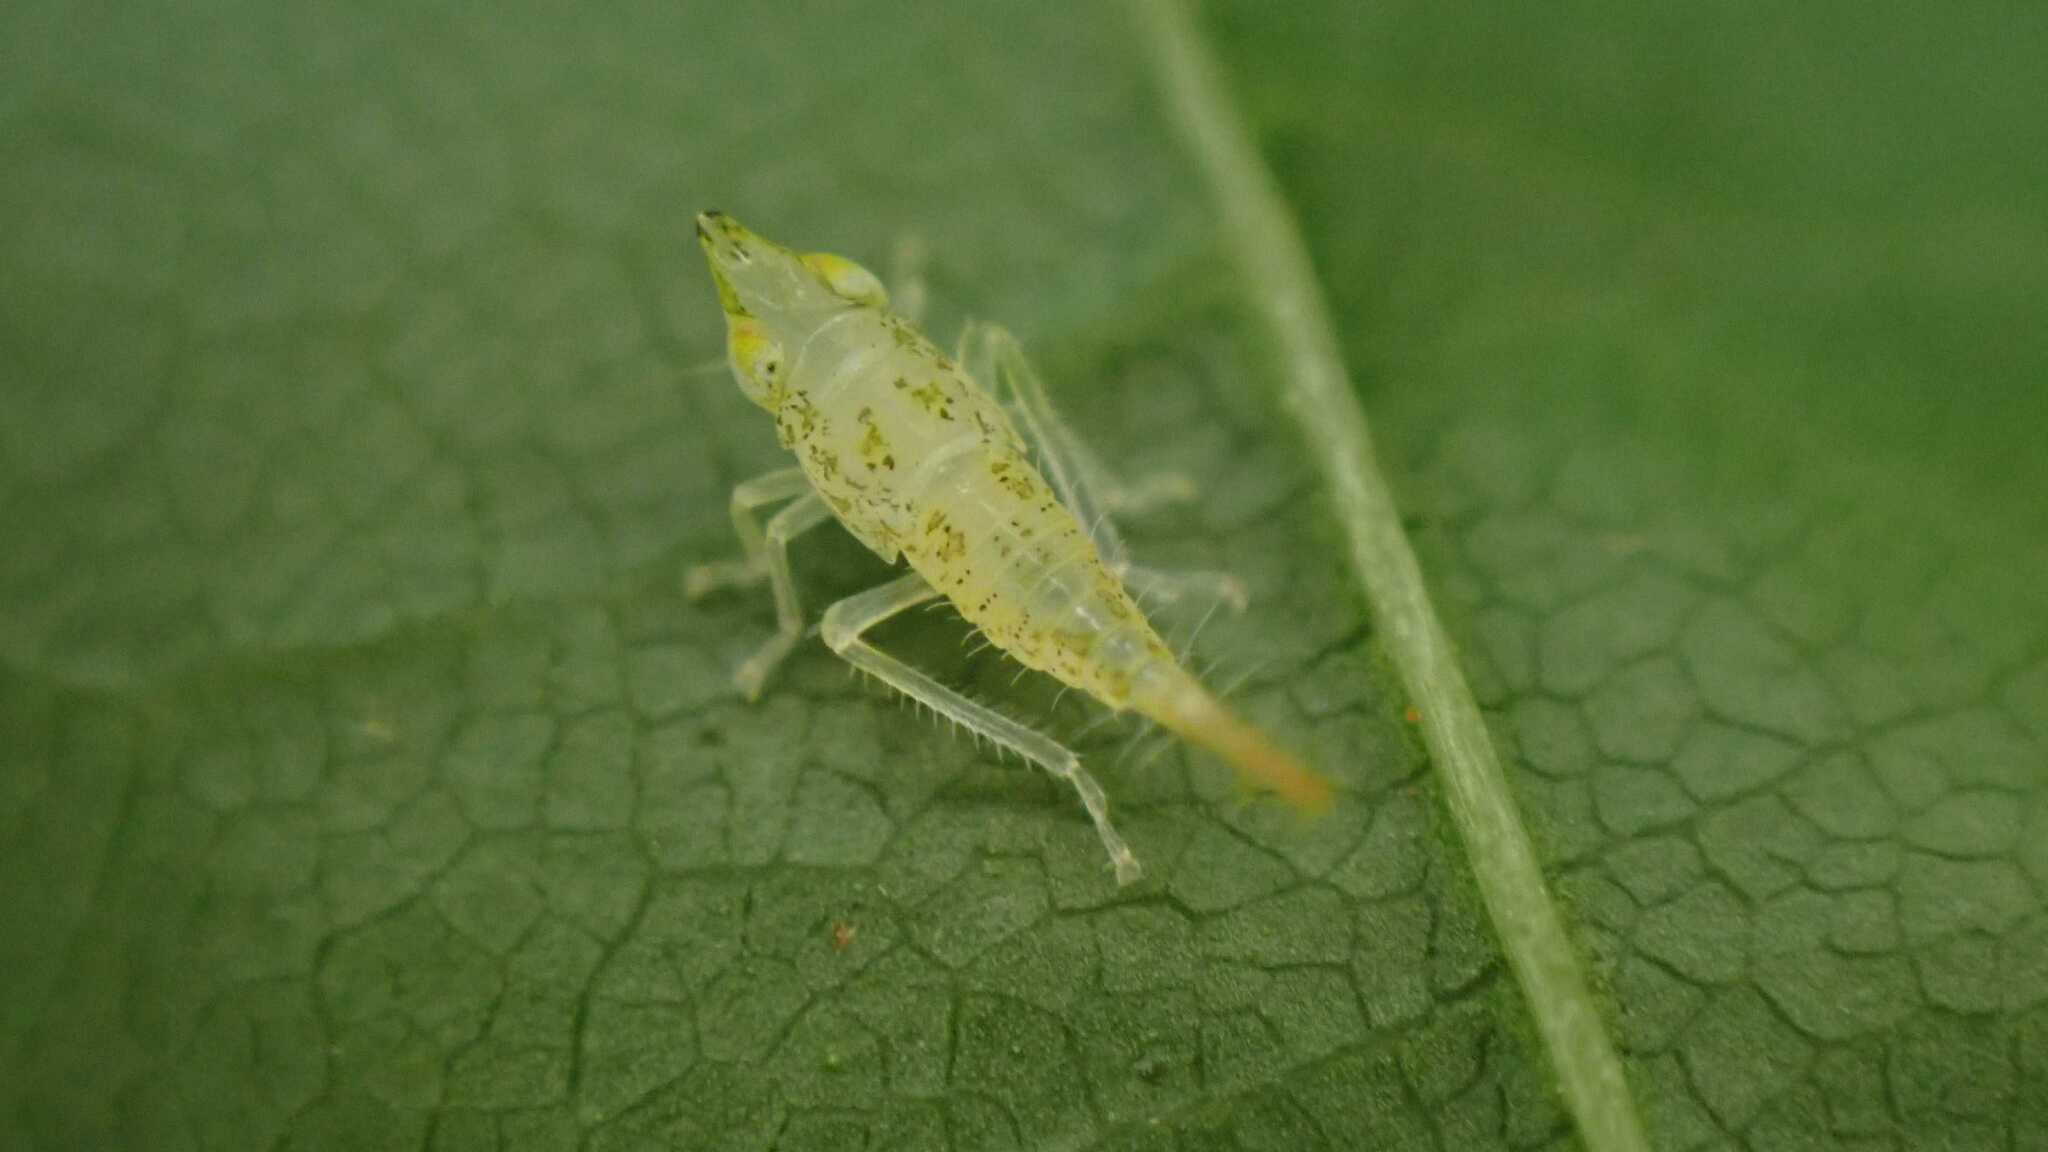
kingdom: Animalia
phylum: Arthropoda
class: Insecta
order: Hemiptera
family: Cicadellidae
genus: Japananus
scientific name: Japananus hyalinus
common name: The japanese maple leafhopper
